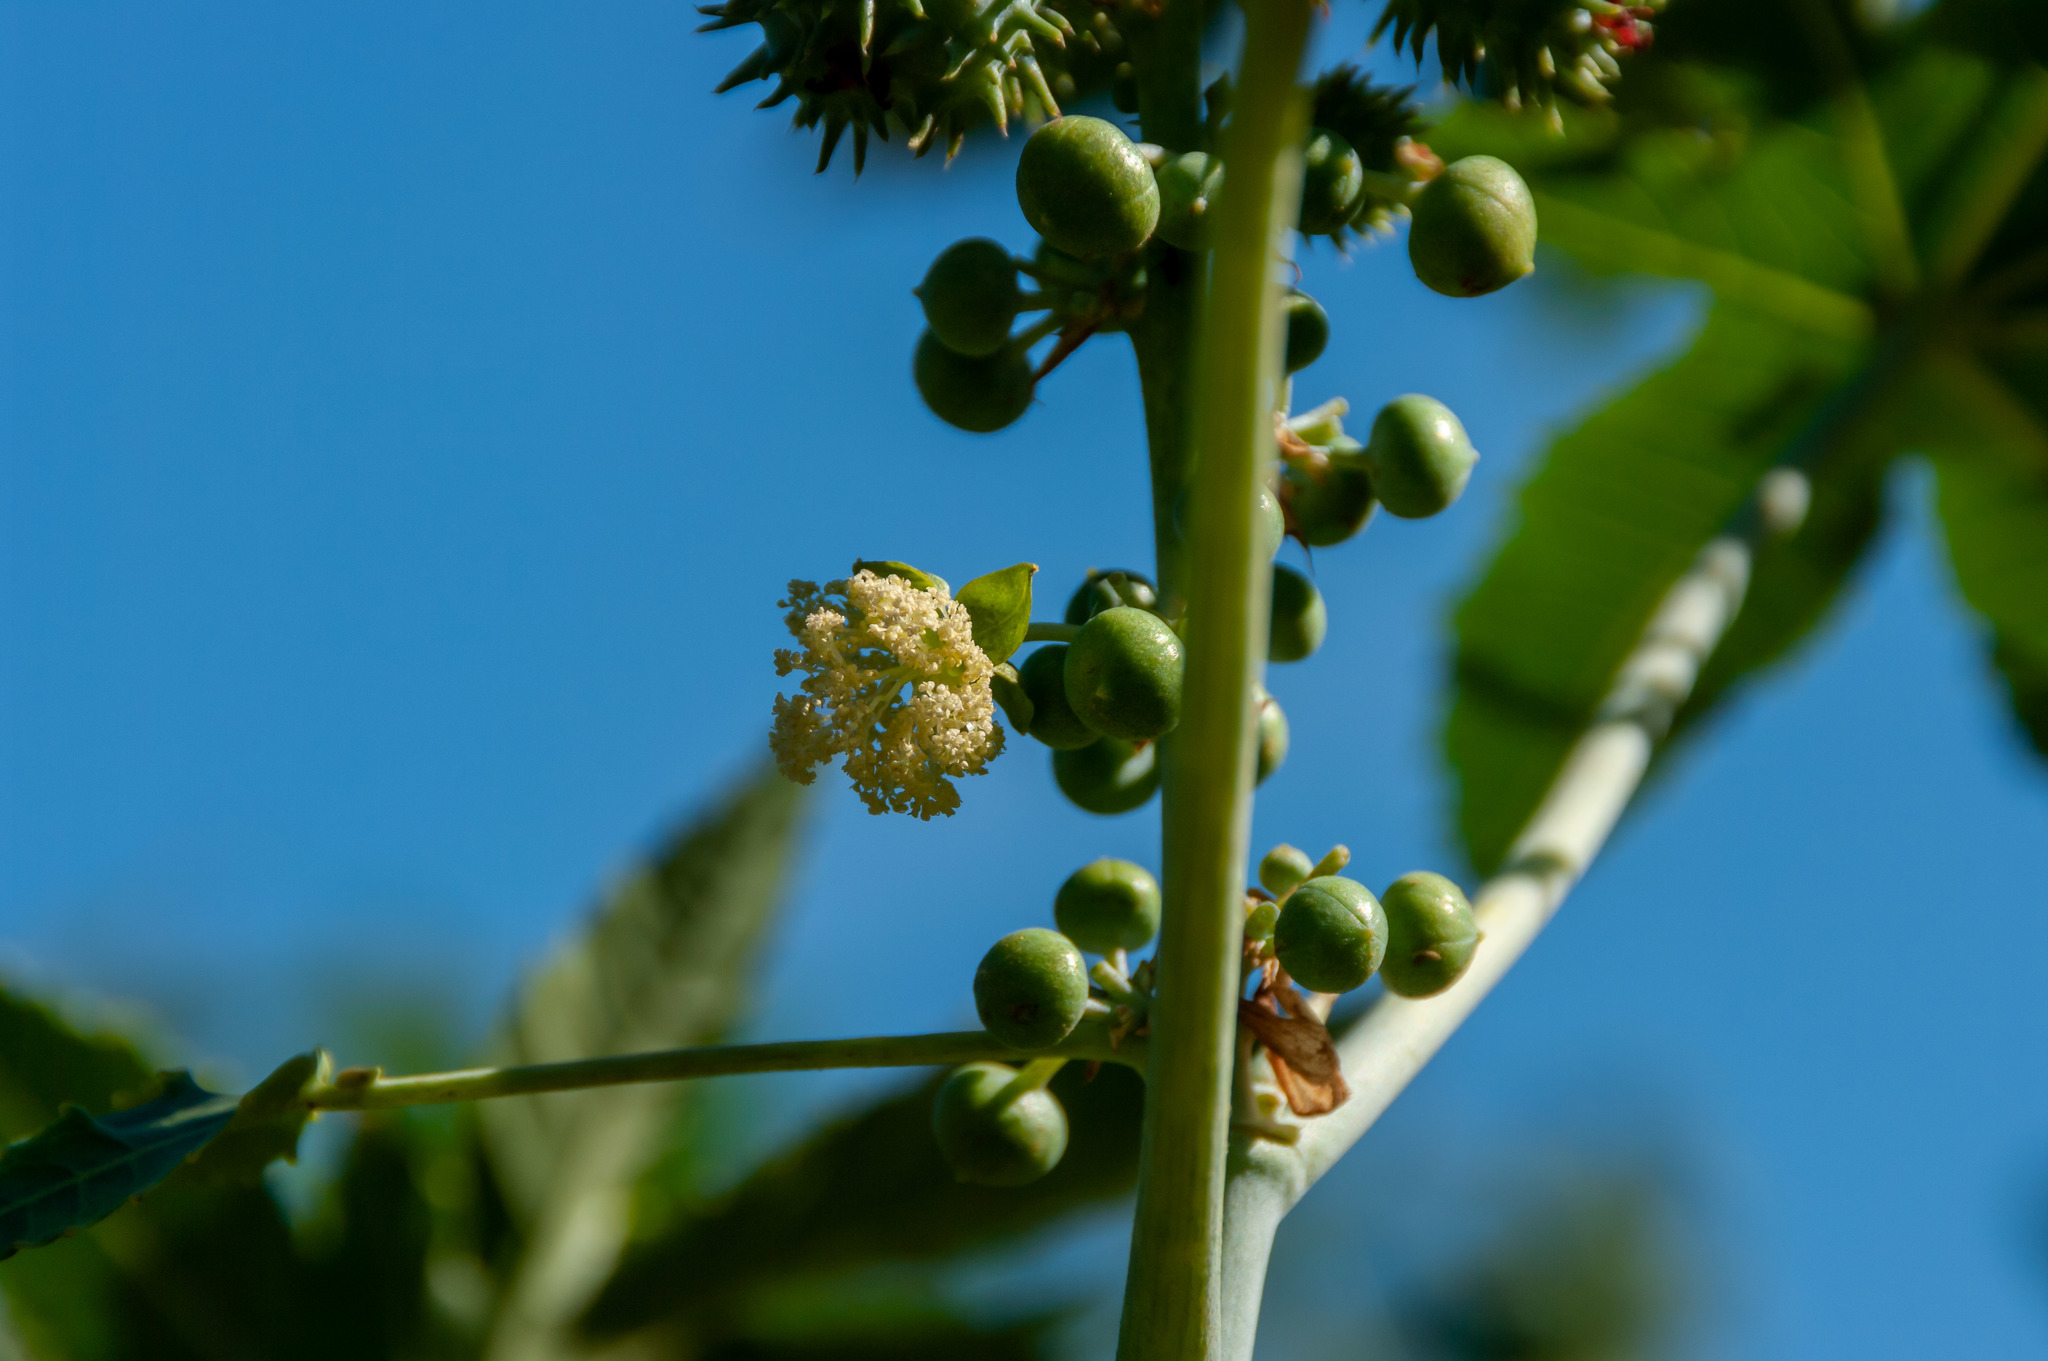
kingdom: Plantae
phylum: Tracheophyta
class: Magnoliopsida
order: Malpighiales
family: Euphorbiaceae
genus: Ricinus
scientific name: Ricinus communis
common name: Castor-oil-plant
